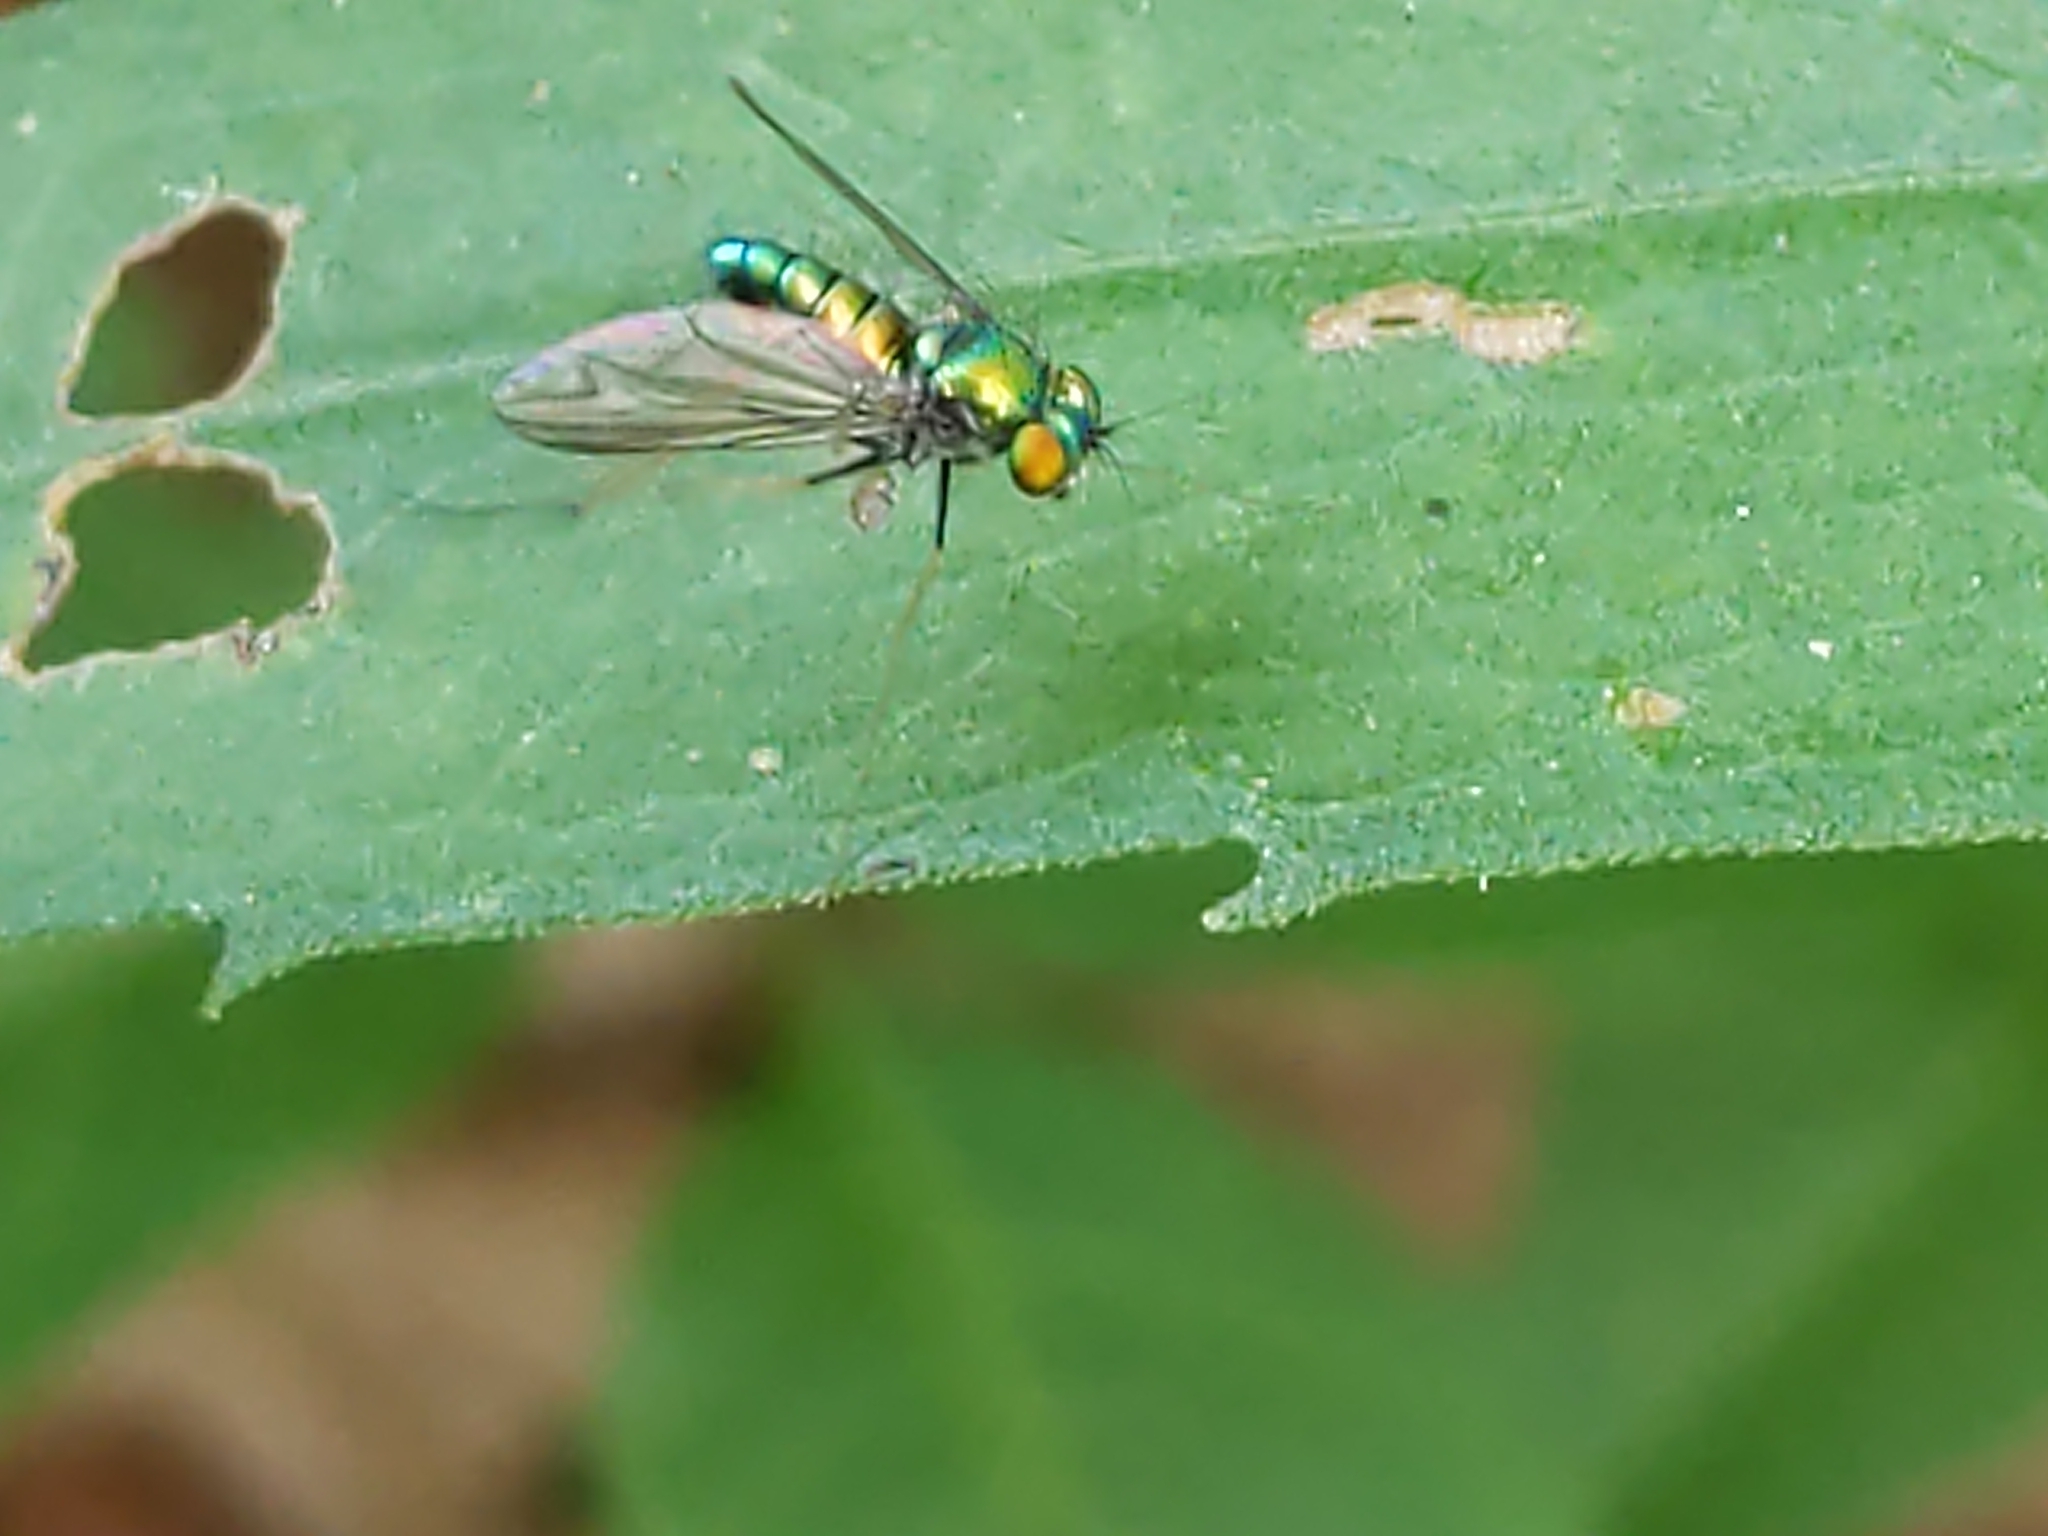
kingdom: Animalia
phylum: Arthropoda
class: Insecta
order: Diptera
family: Dolichopodidae
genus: Condylostylus
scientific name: Condylostylus
